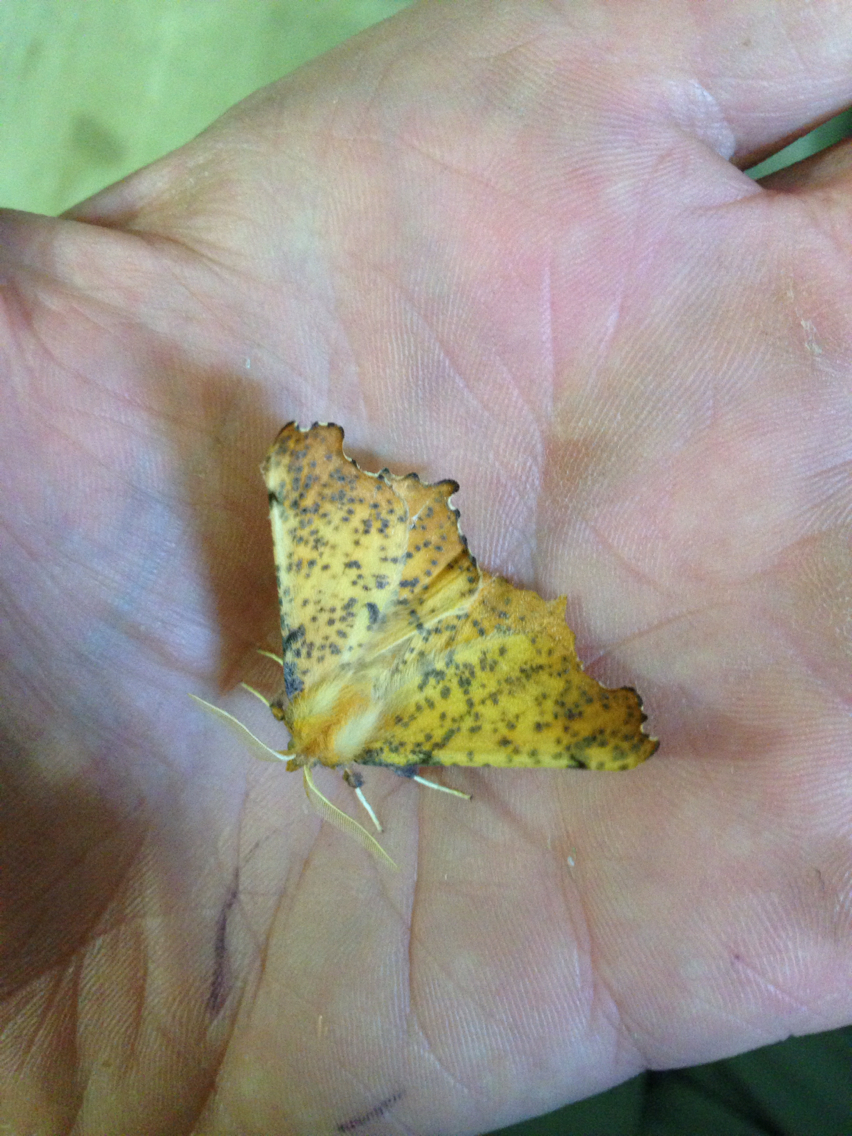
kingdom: Animalia
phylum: Arthropoda
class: Insecta
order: Lepidoptera
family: Geometridae
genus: Ennomos
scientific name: Ennomos magnaria
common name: Maple spanworm
